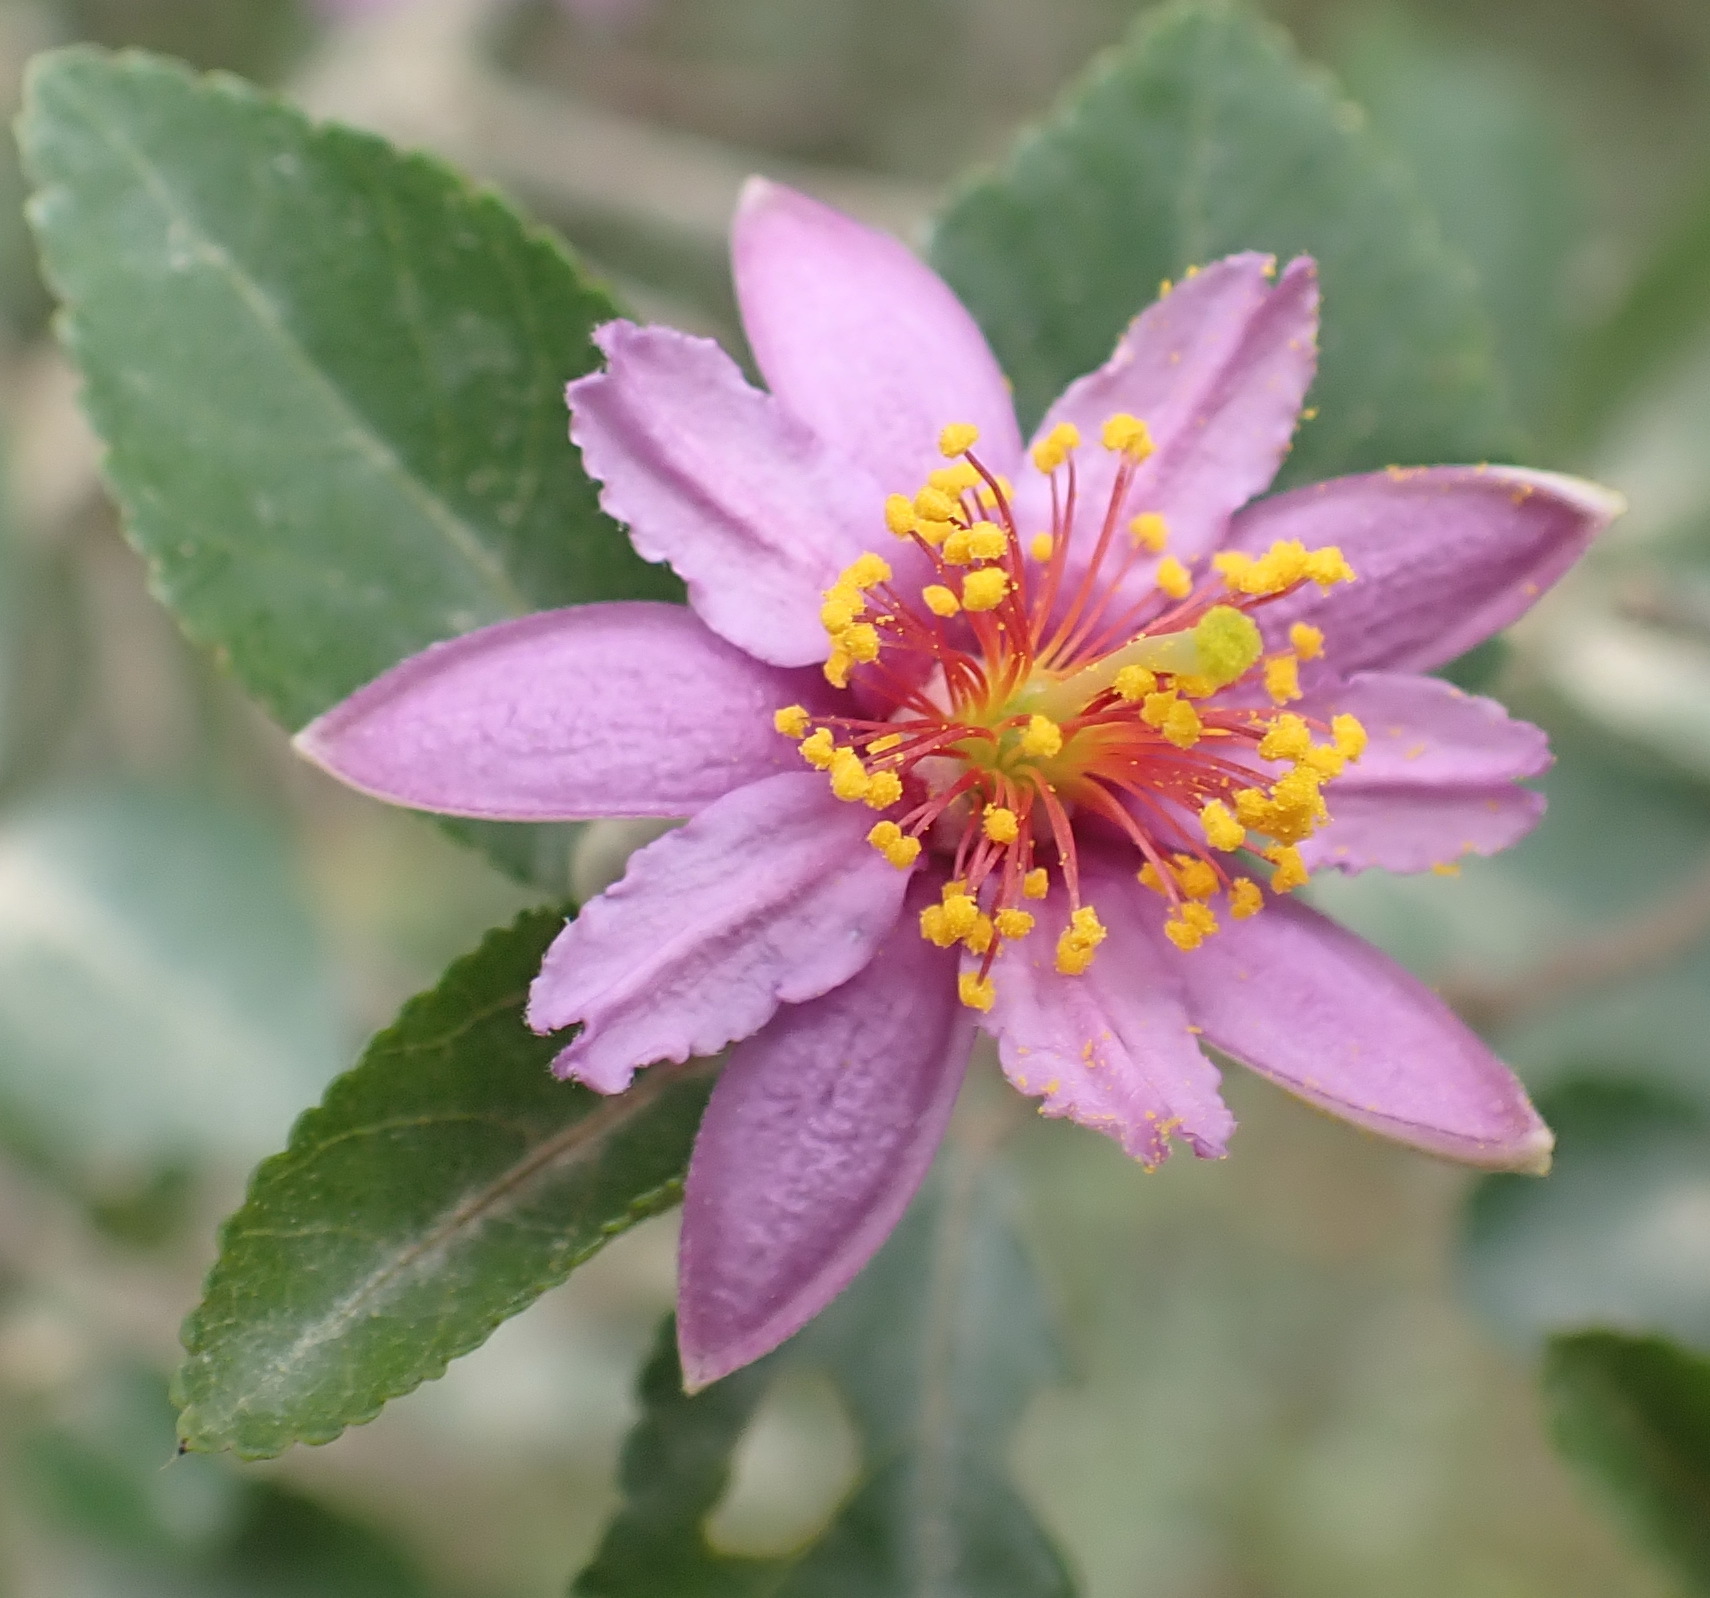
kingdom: Plantae
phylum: Tracheophyta
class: Magnoliopsida
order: Malvales
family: Malvaceae
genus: Grewia
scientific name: Grewia occidentalis
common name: Crossberry
